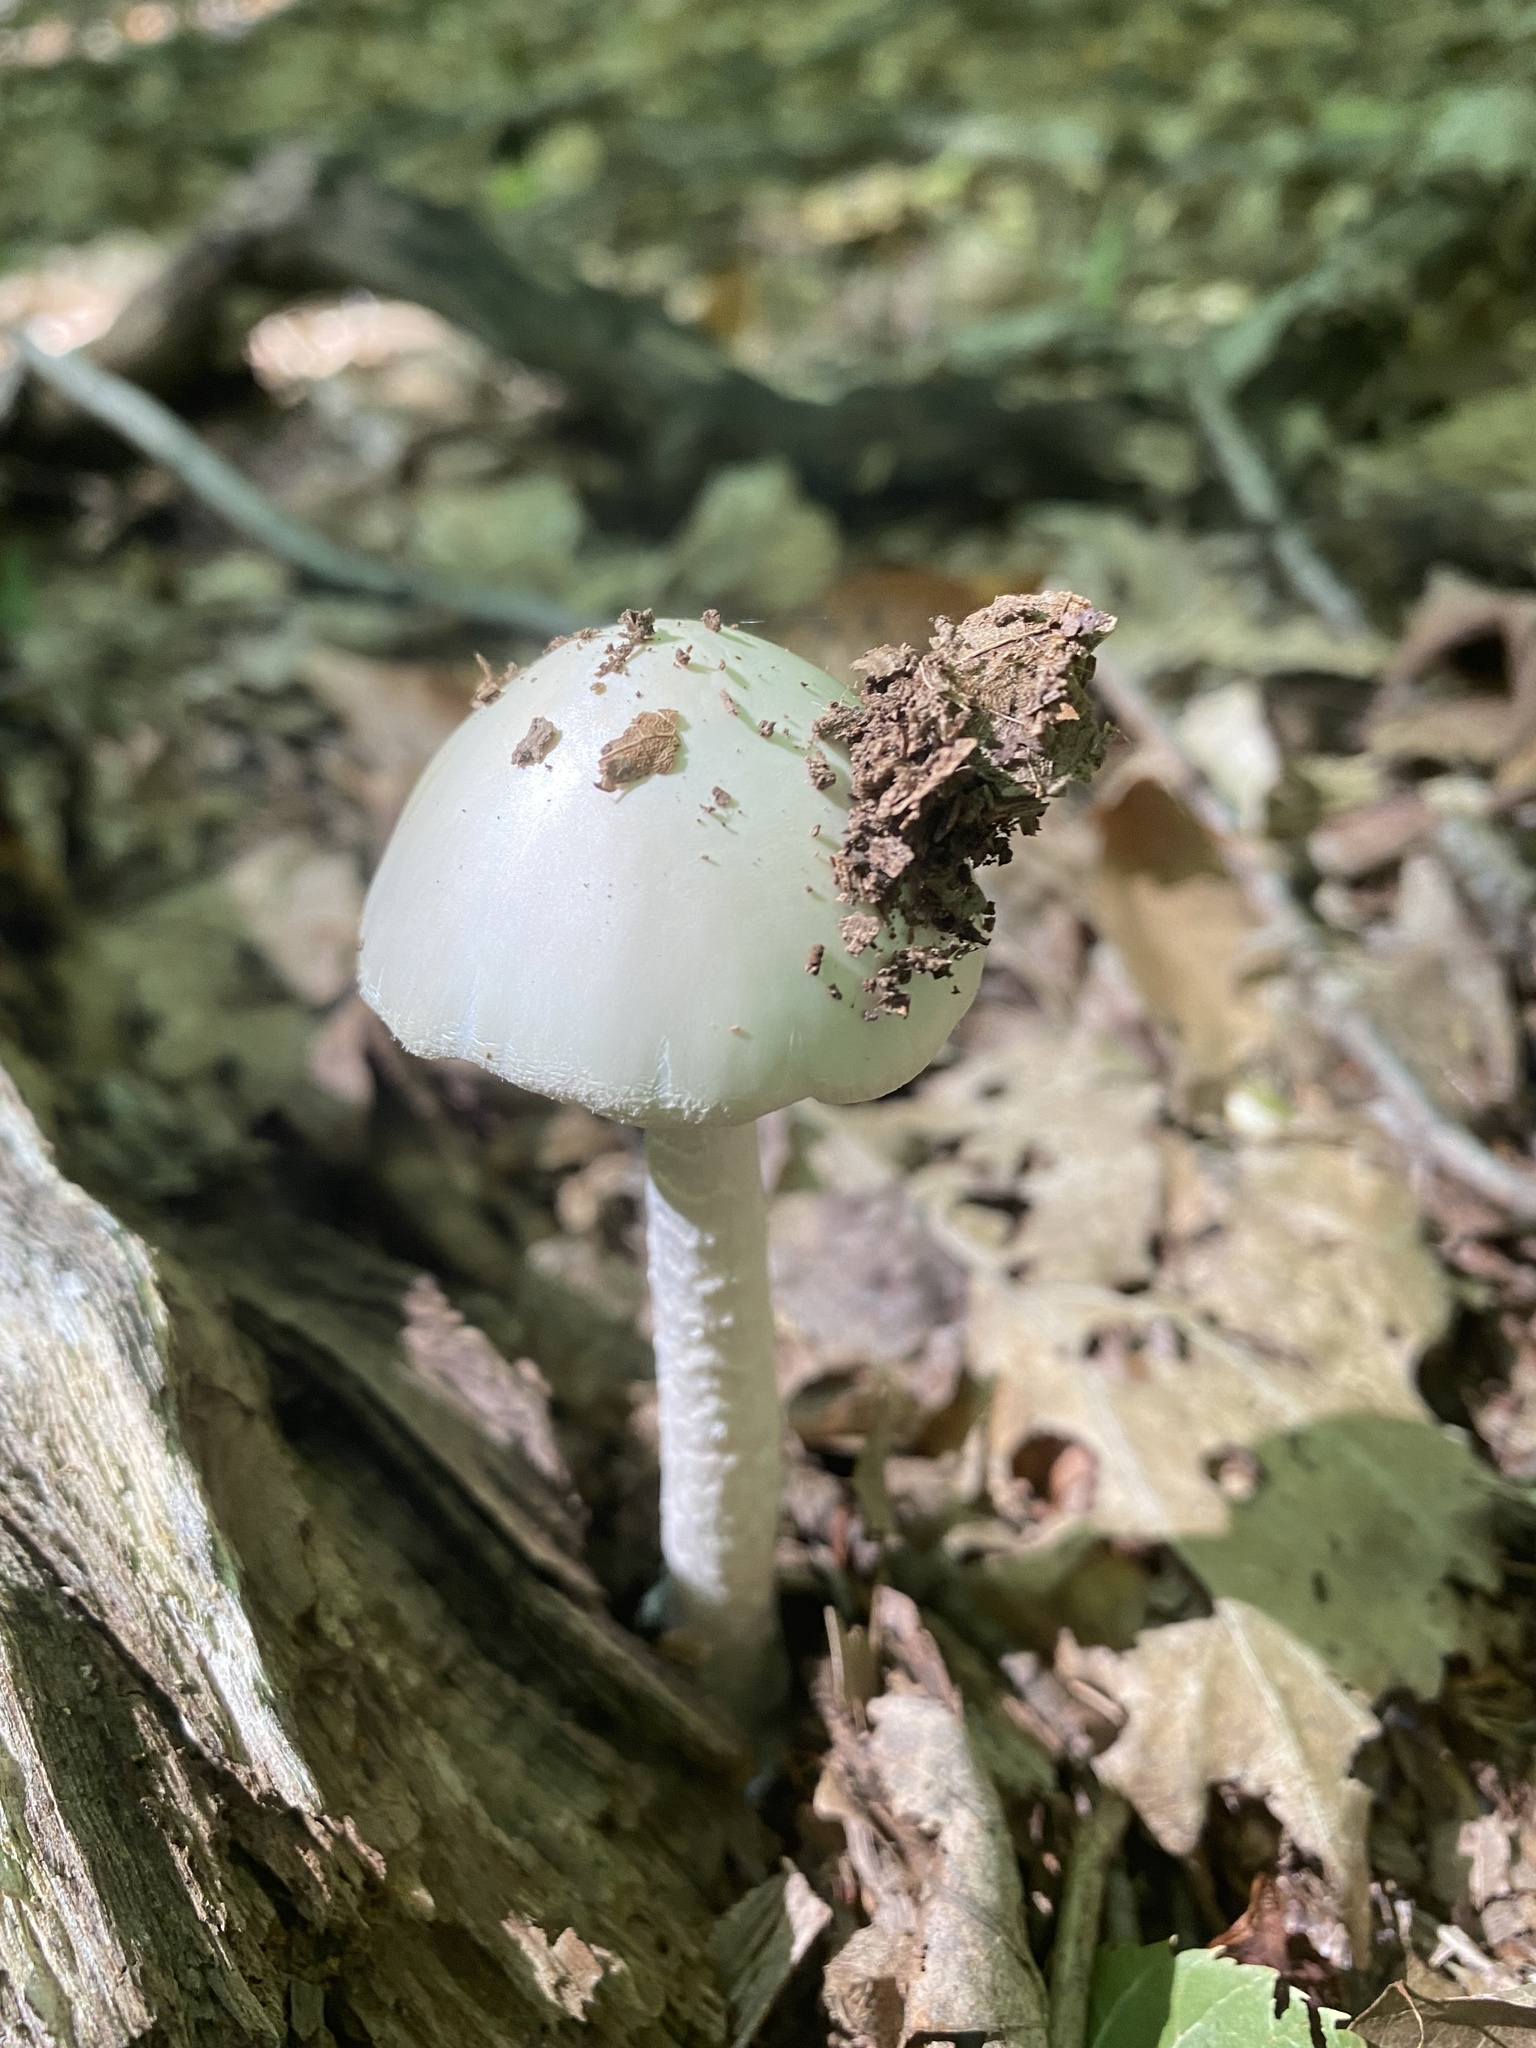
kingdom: Fungi
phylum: Basidiomycota
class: Agaricomycetes
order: Agaricales
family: Amanitaceae
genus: Amanita
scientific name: Amanita bisporigera
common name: Eastern north american destroying angel
